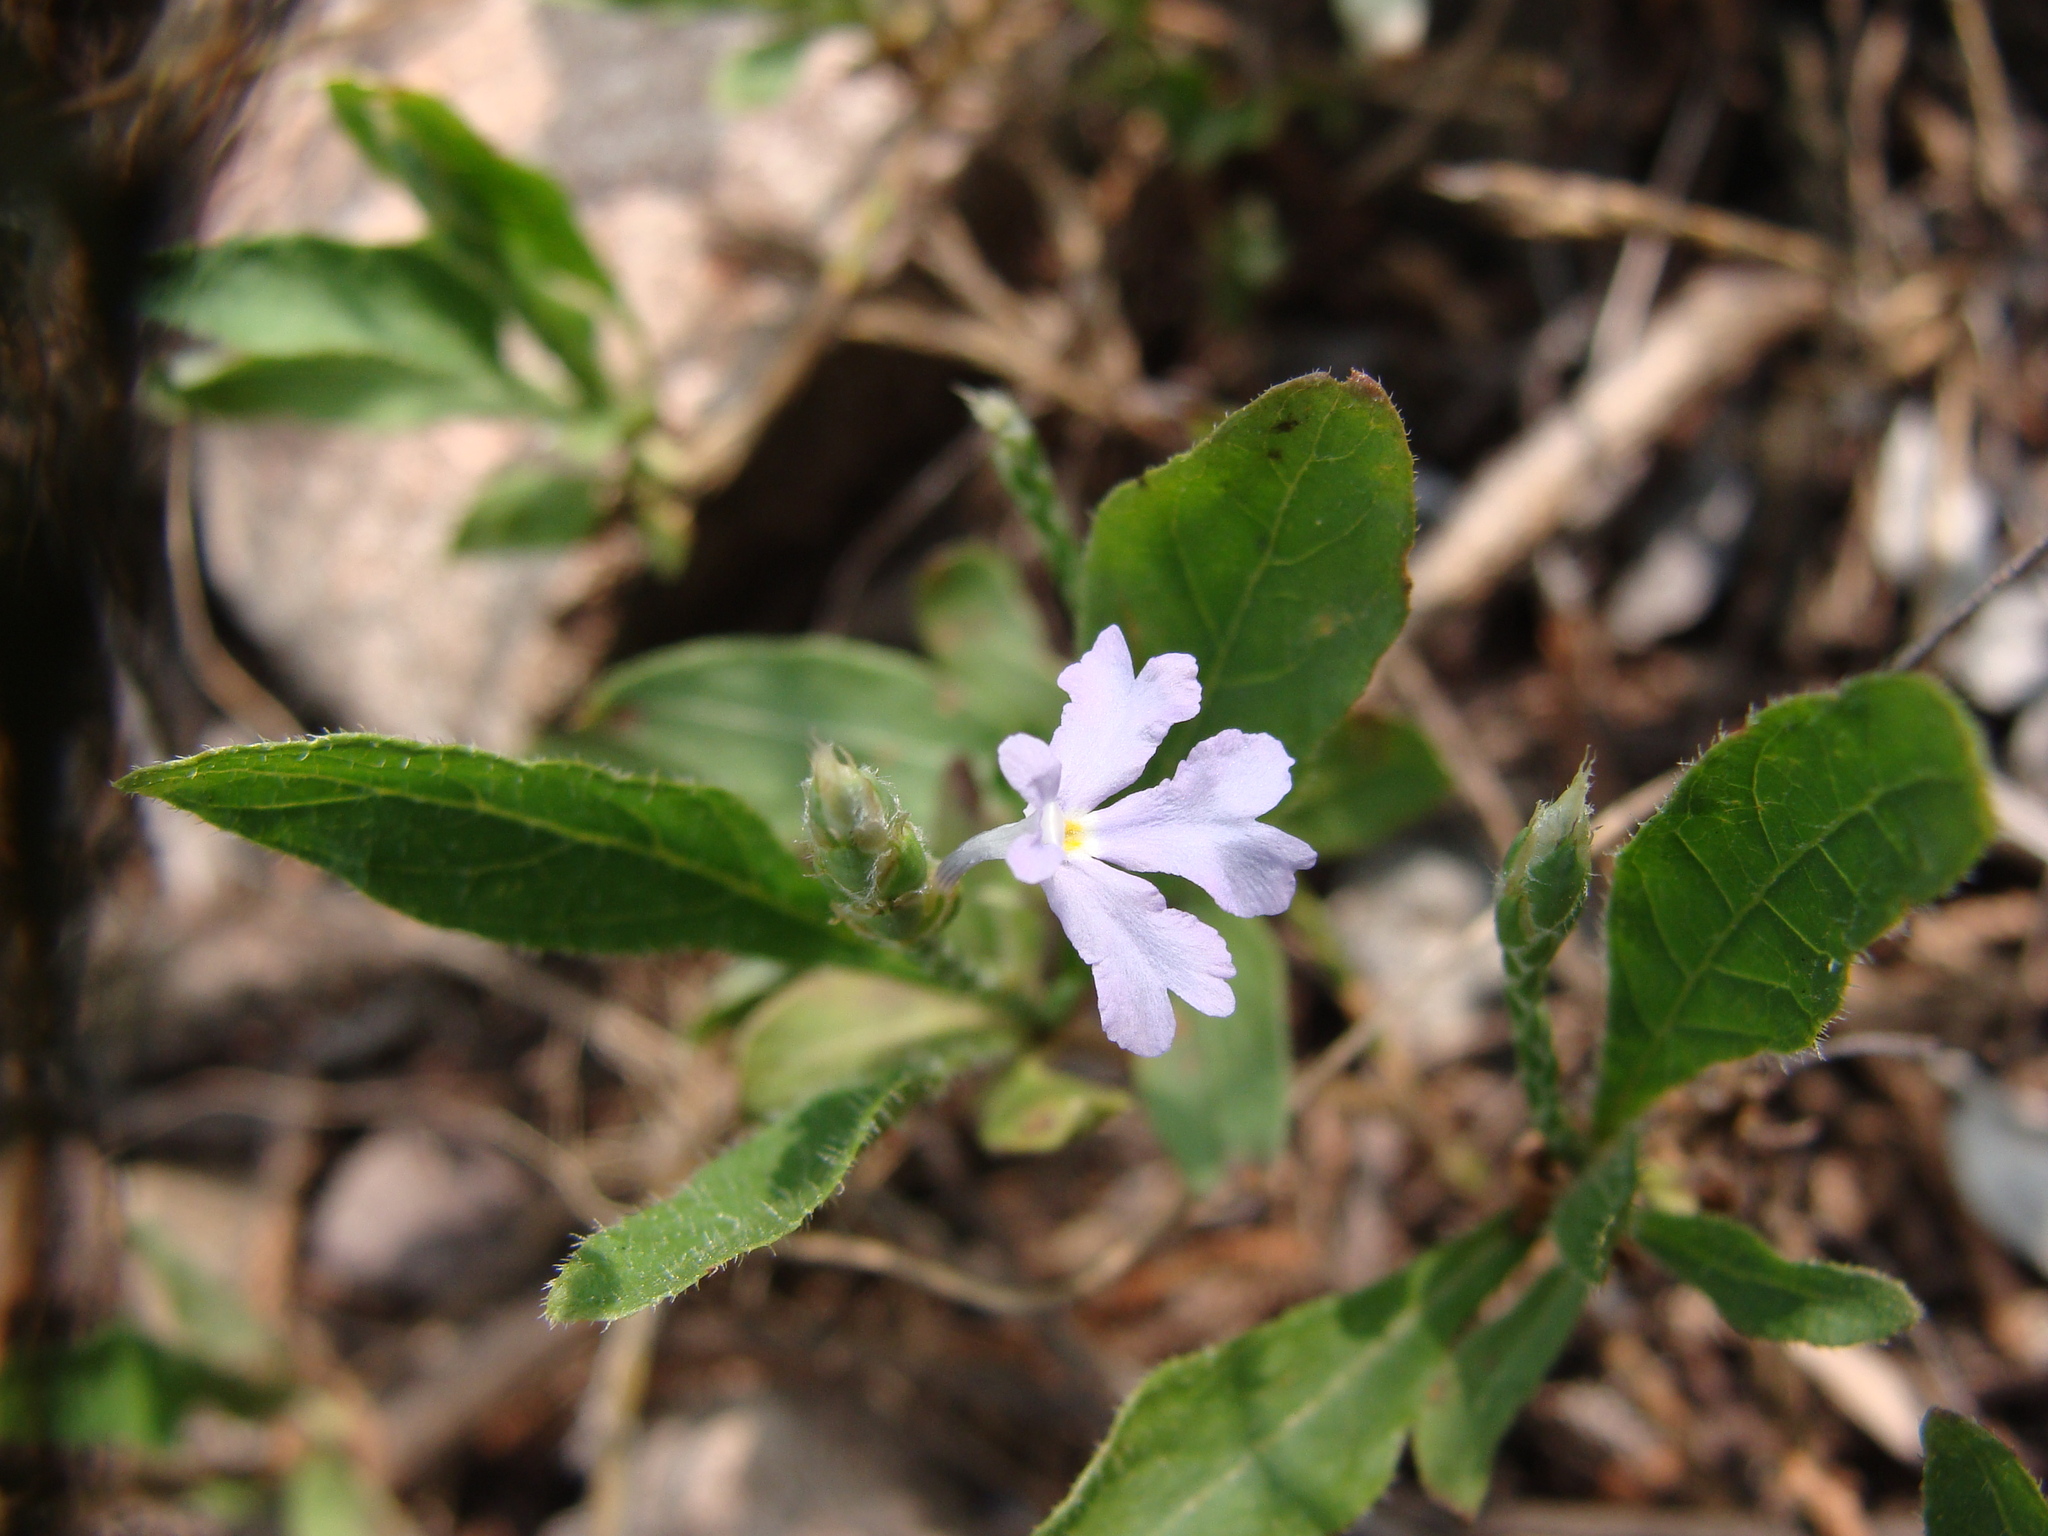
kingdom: Plantae
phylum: Tracheophyta
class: Magnoliopsida
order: Lamiales
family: Acanthaceae
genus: Elytraria
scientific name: Elytraria imbricata
